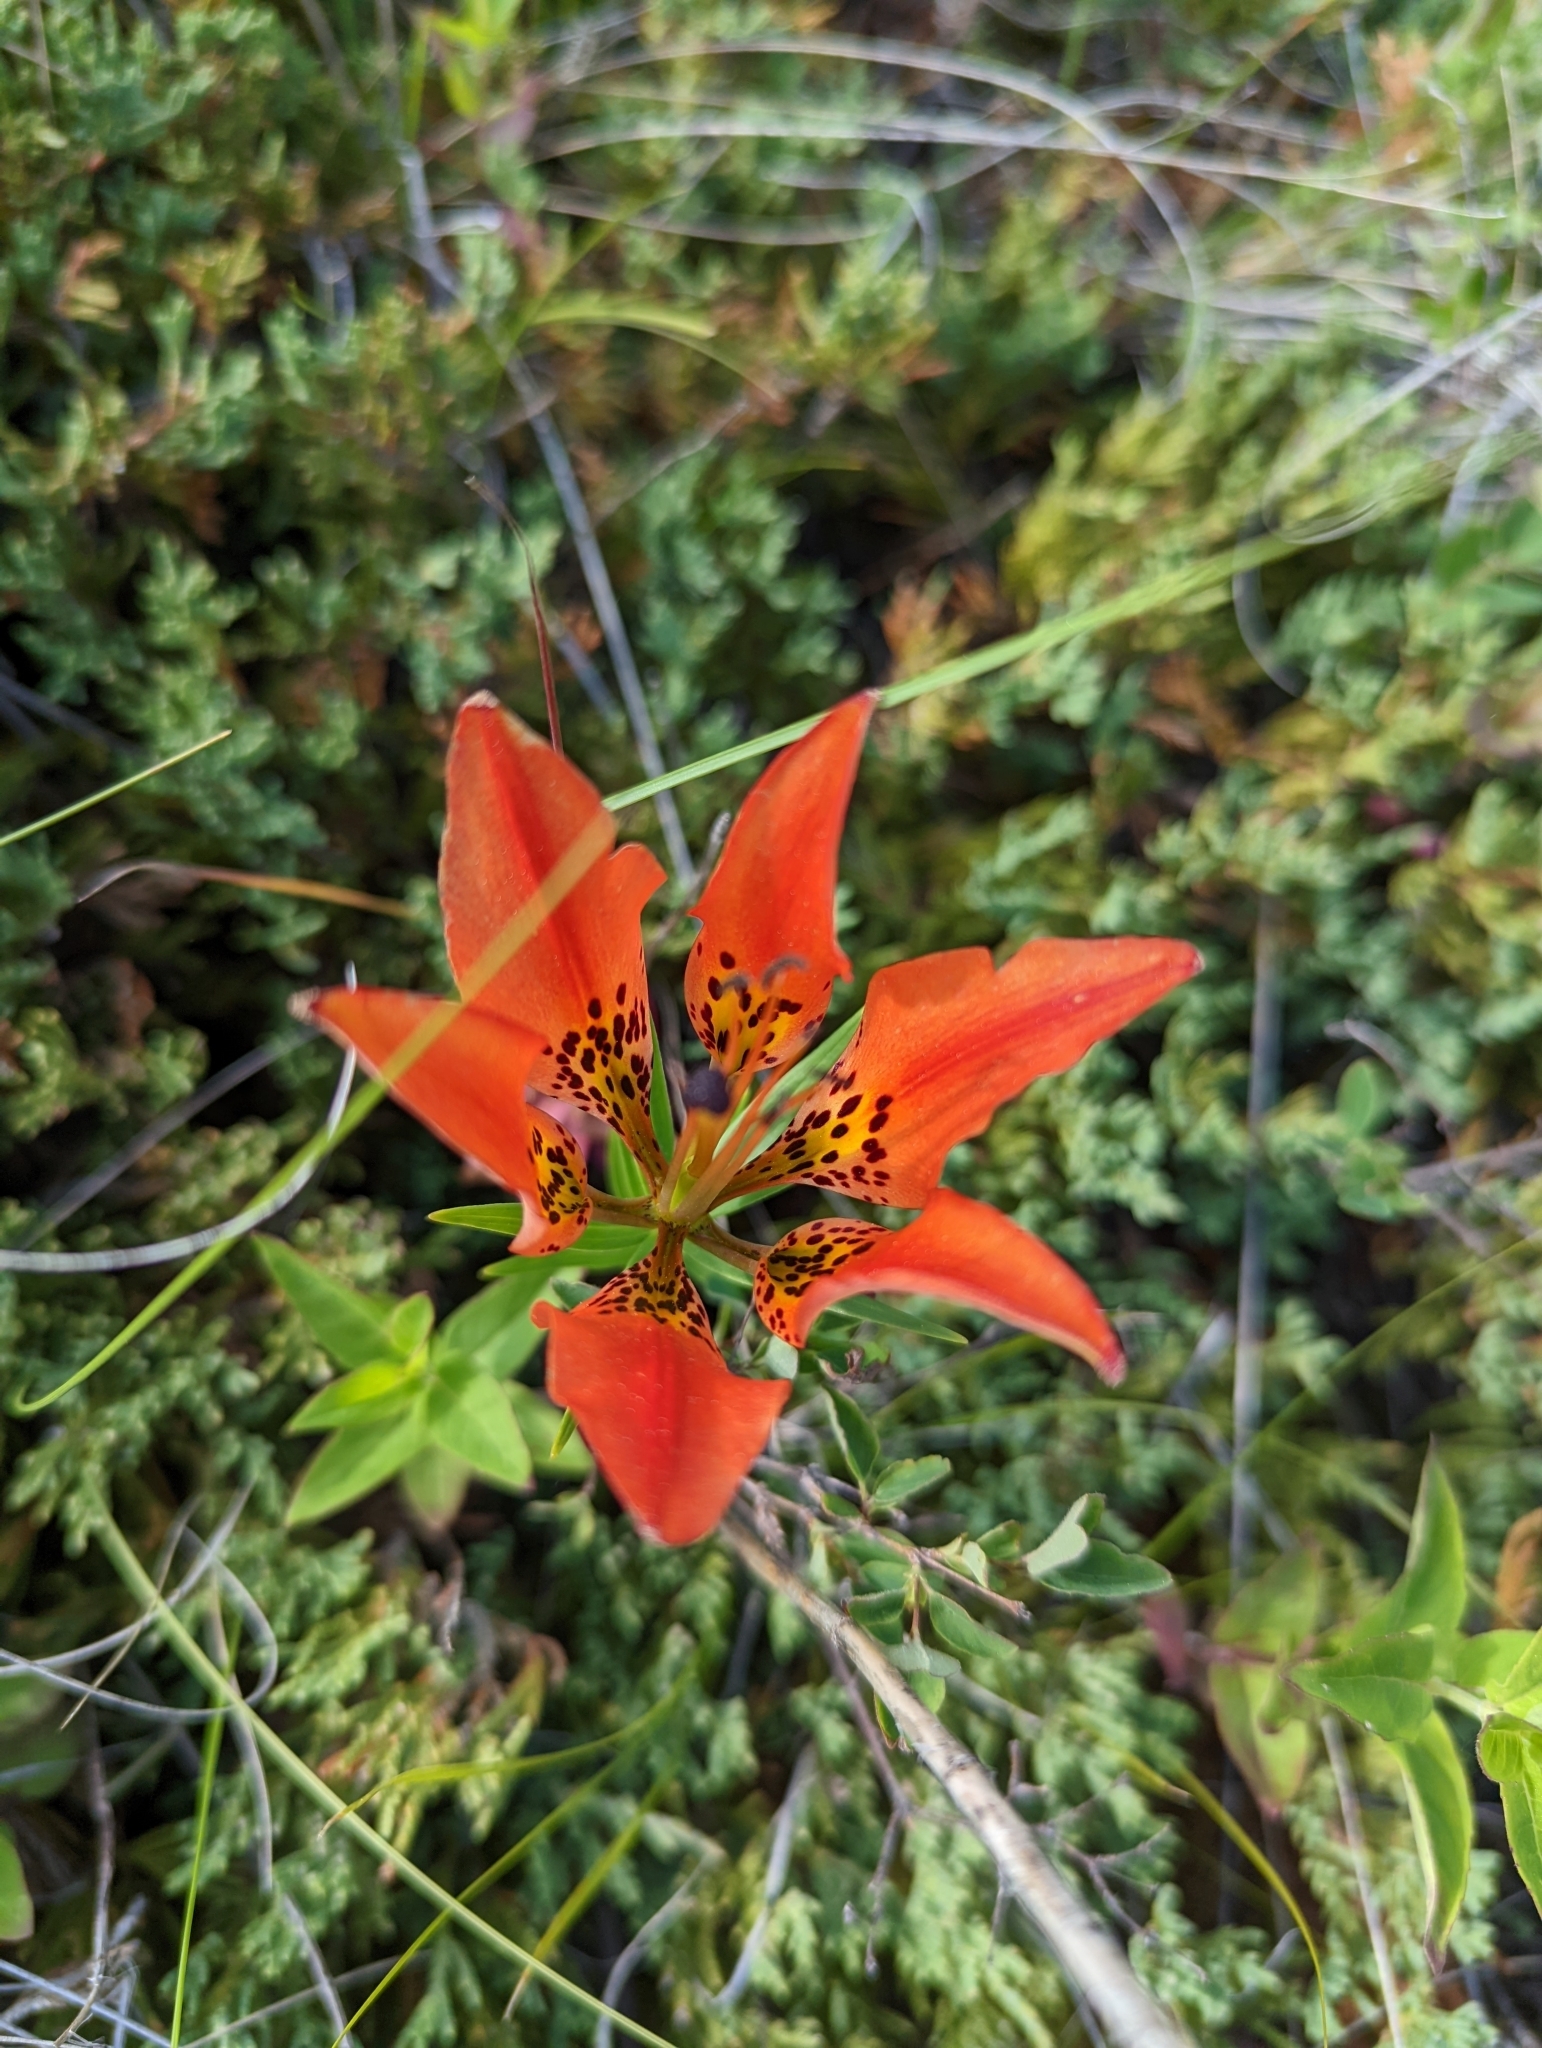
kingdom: Plantae
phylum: Tracheophyta
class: Liliopsida
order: Liliales
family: Liliaceae
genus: Lilium
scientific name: Lilium philadelphicum
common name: Red lily
